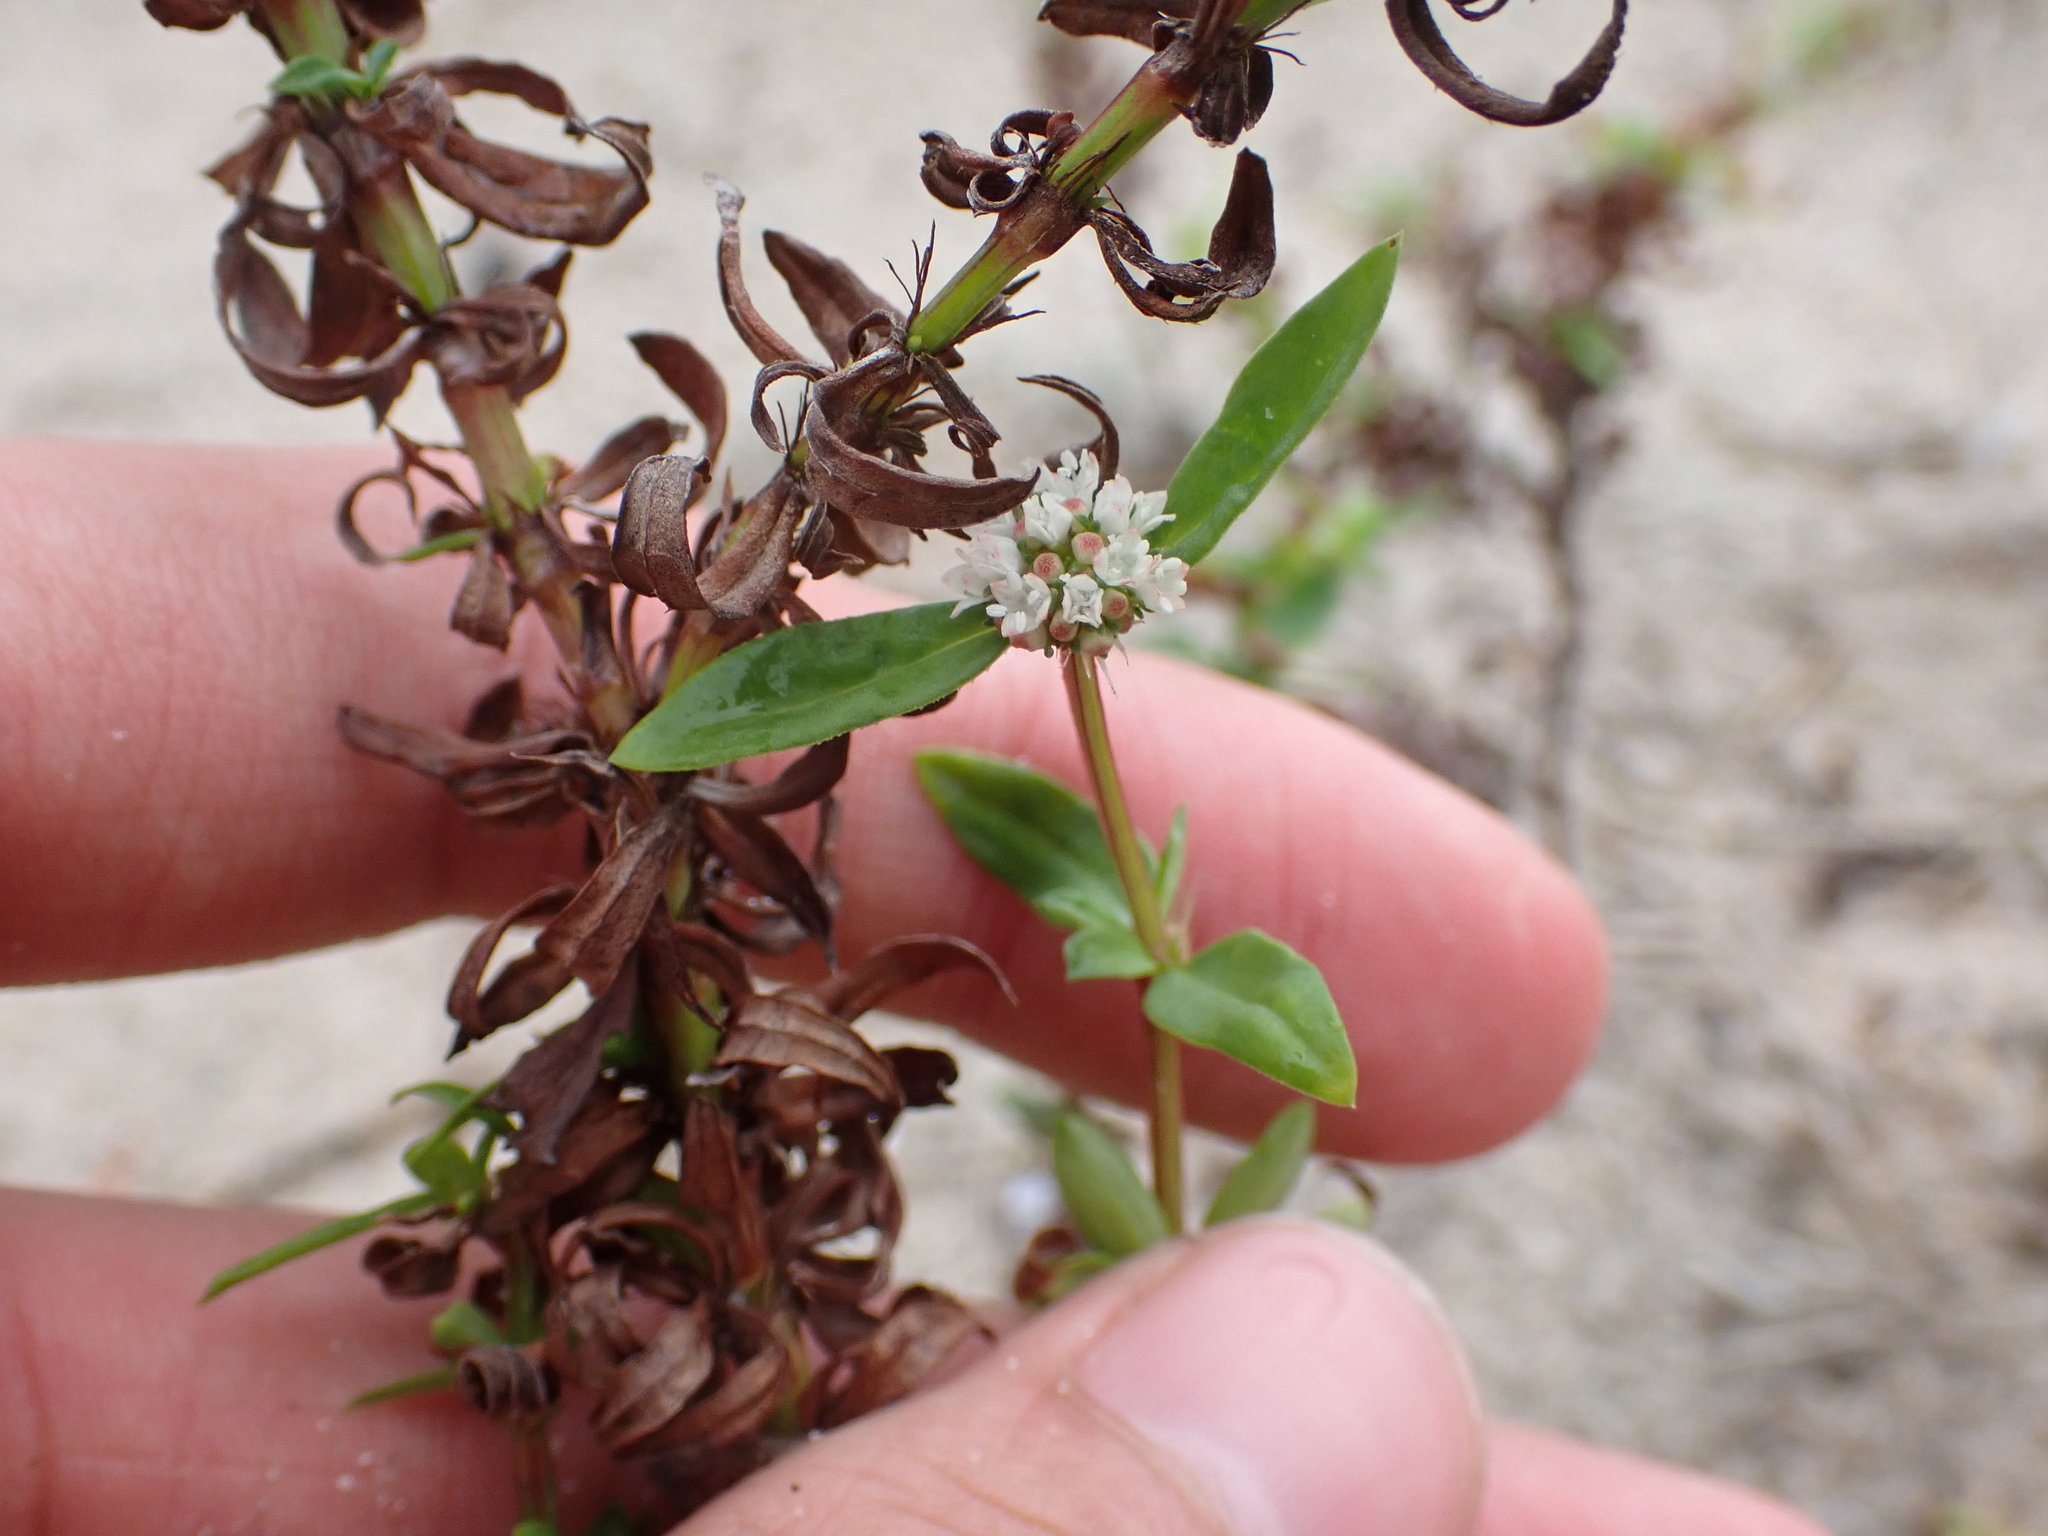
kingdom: Plantae
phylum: Tracheophyta
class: Magnoliopsida
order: Gentianales
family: Rubiaceae
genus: Diacrodon
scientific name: Diacrodon compressus
